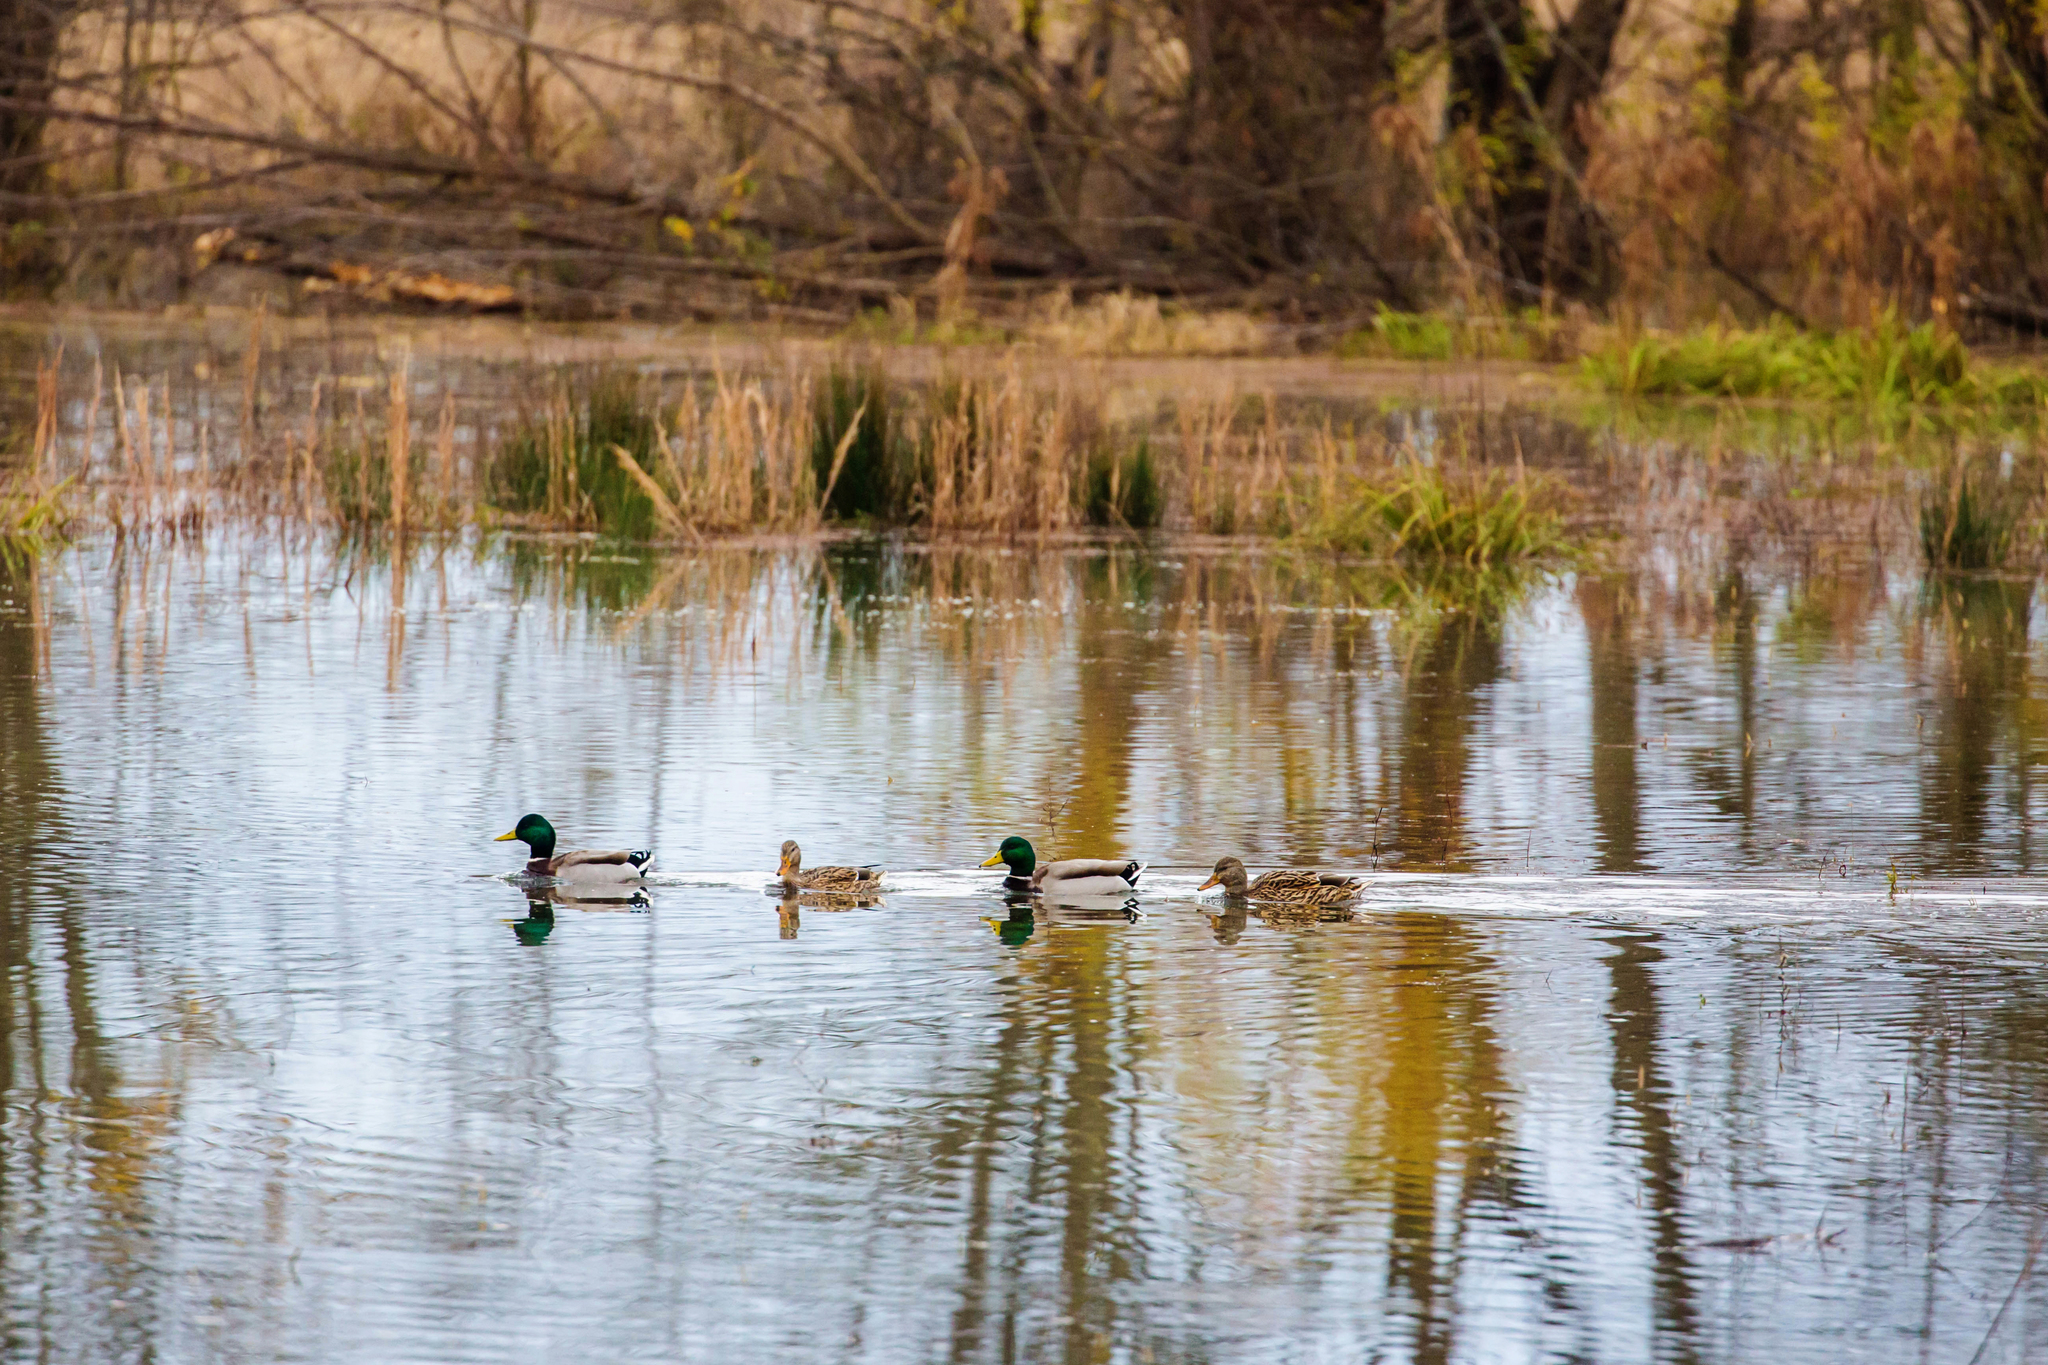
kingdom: Animalia
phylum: Chordata
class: Aves
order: Anseriformes
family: Anatidae
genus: Anas
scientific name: Anas platyrhynchos
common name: Mallard
